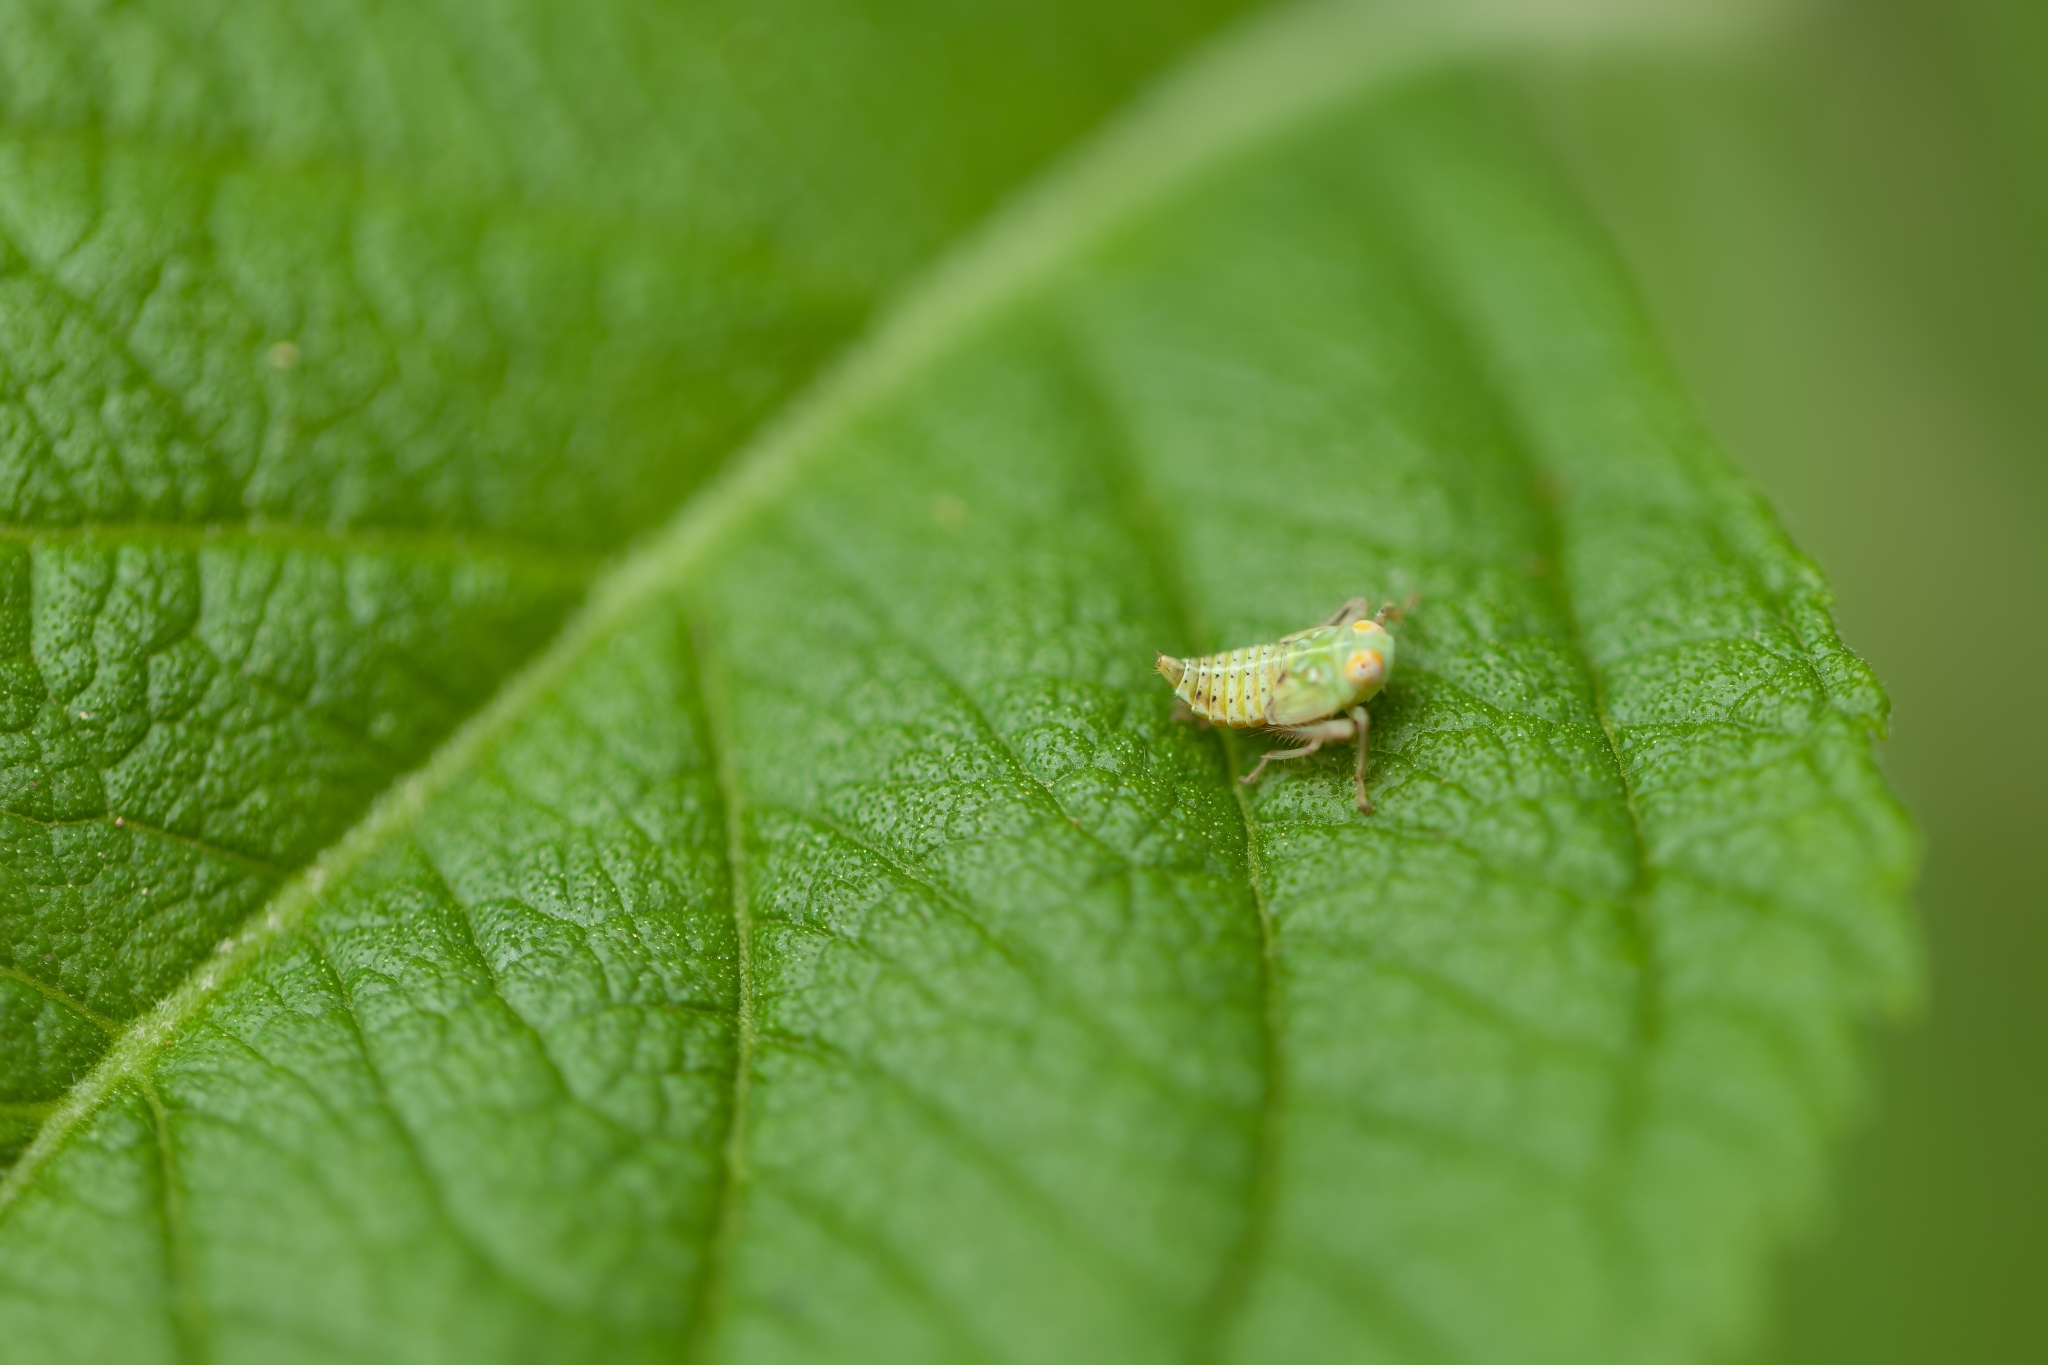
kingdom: Animalia
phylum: Arthropoda
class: Insecta
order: Hemiptera
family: Cicadellidae
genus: Jikradia
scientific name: Jikradia olitoria
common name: Coppery leafhopper
